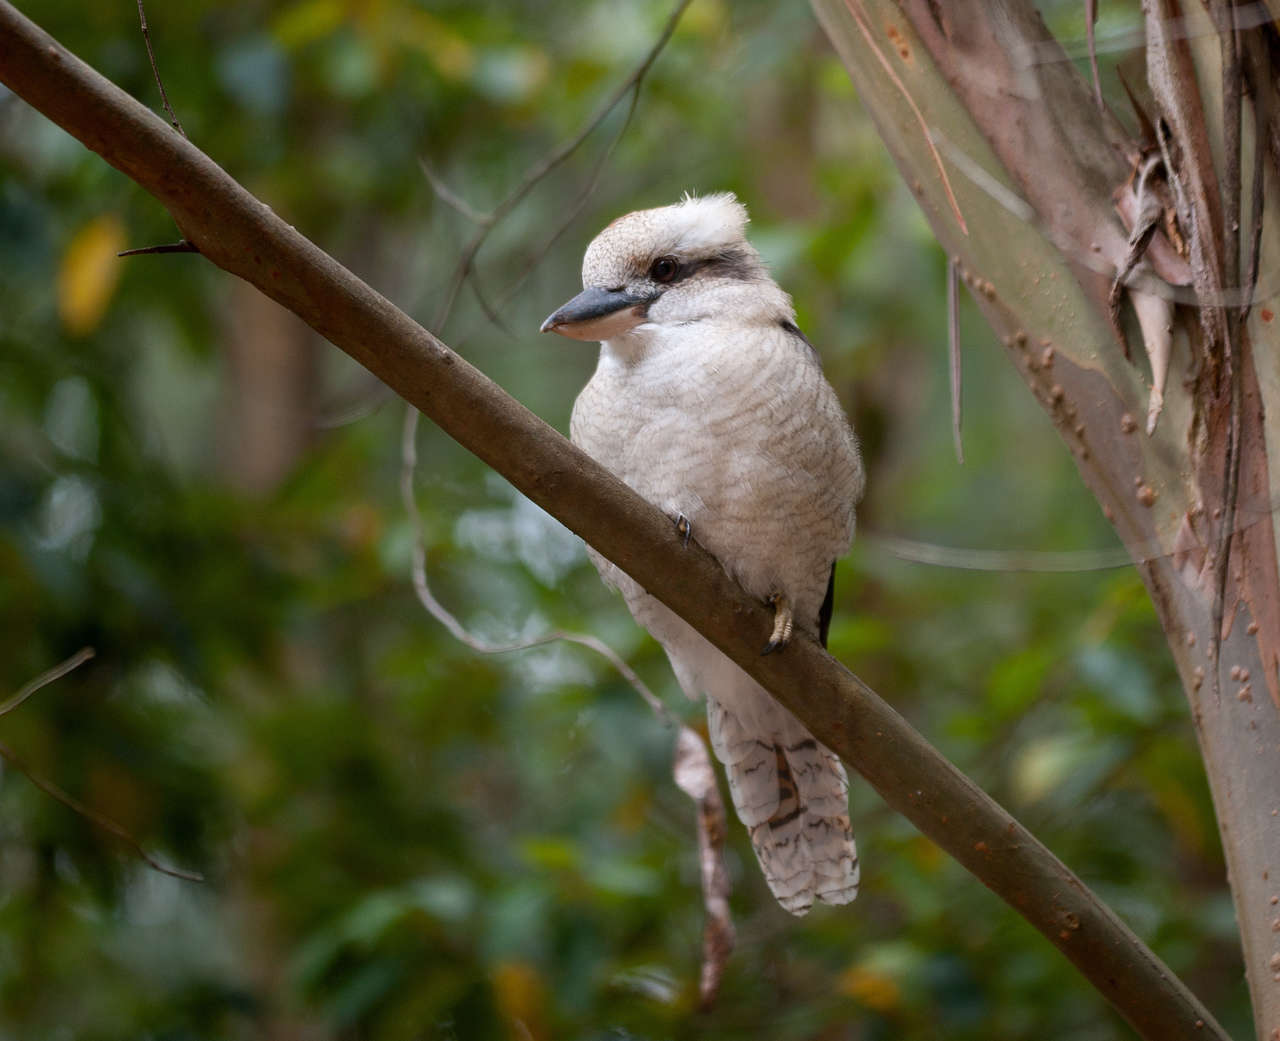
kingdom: Animalia
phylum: Chordata
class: Aves
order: Coraciiformes
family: Alcedinidae
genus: Dacelo
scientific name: Dacelo novaeguineae
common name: Laughing kookaburra
